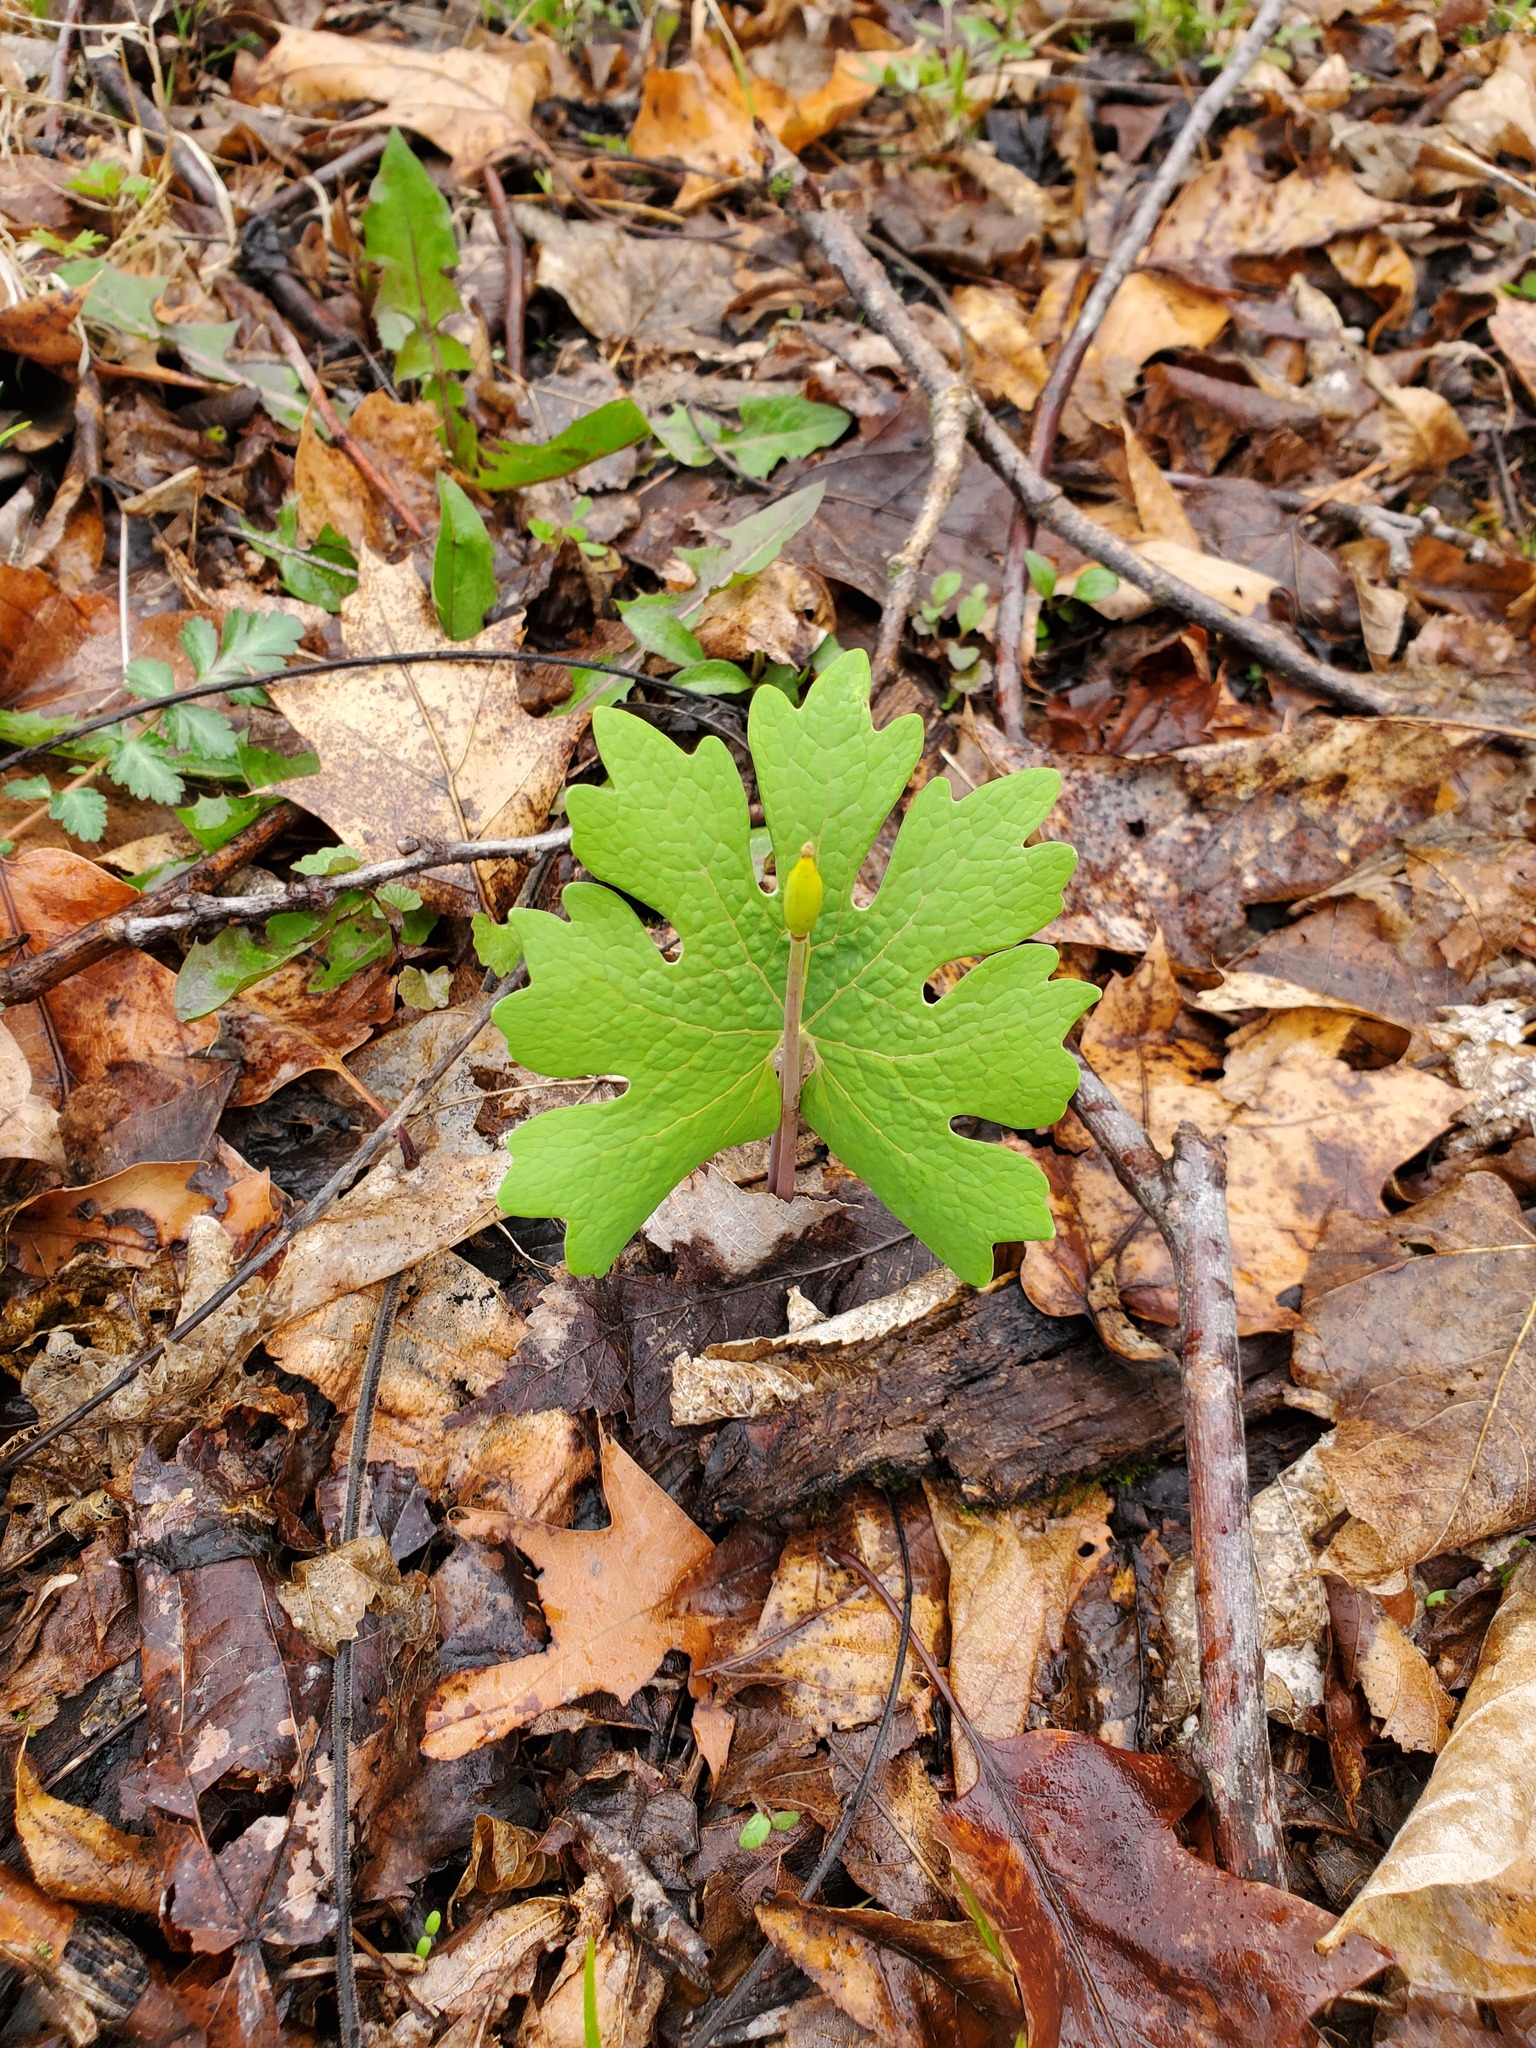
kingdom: Plantae
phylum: Tracheophyta
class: Magnoliopsida
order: Ranunculales
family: Papaveraceae
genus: Sanguinaria
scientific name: Sanguinaria canadensis
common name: Bloodroot
